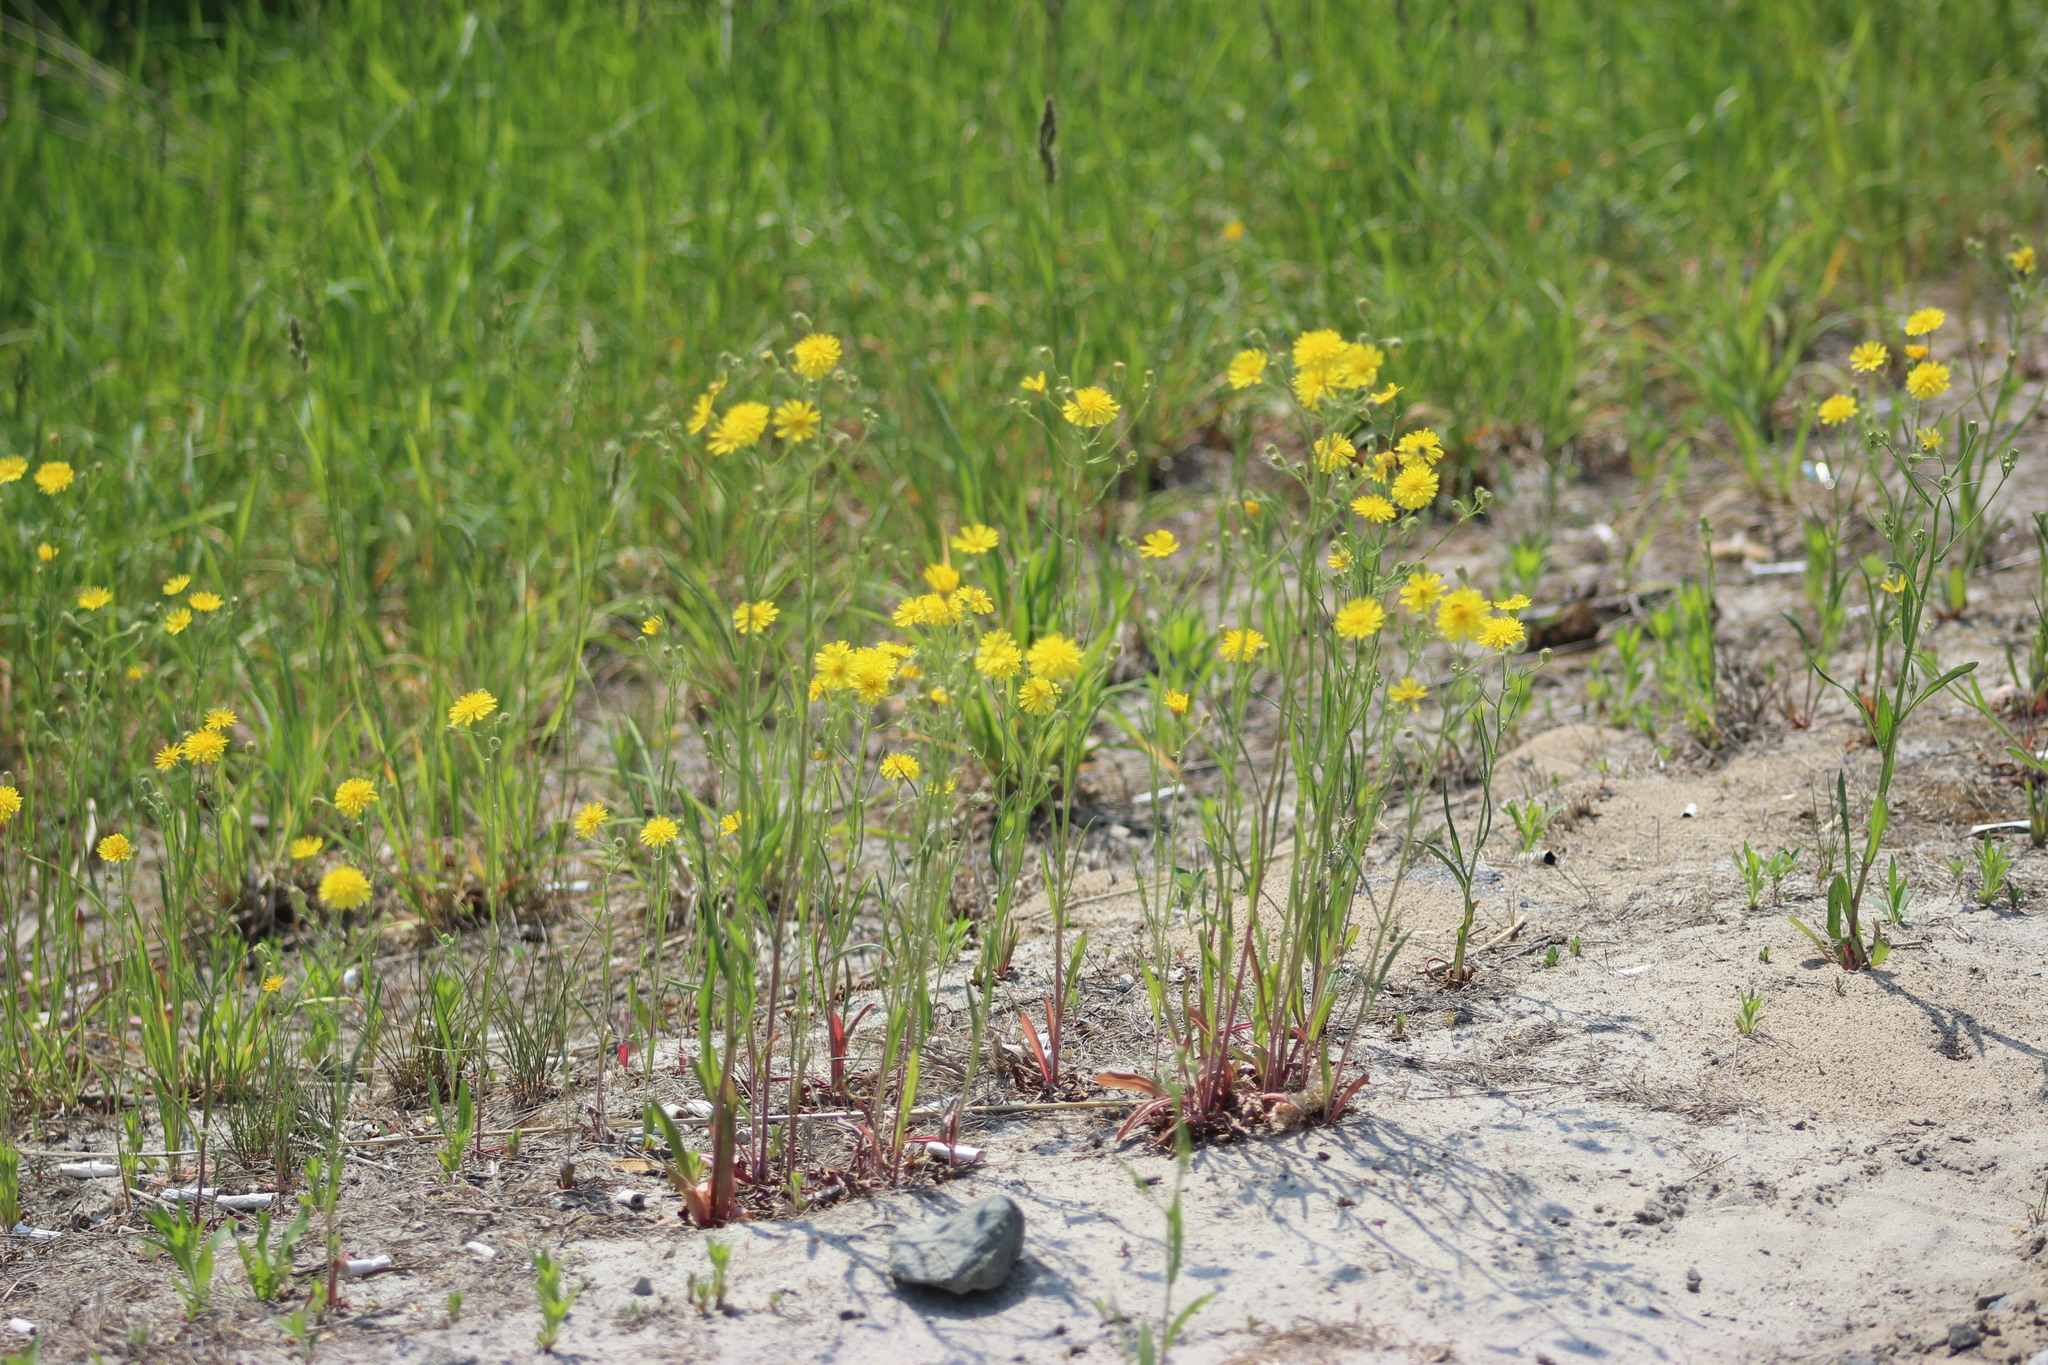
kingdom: Plantae
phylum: Tracheophyta
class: Magnoliopsida
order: Asterales
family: Asteraceae
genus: Crepis
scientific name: Crepis tectorum
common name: Narrow-leaved hawk's-beard
